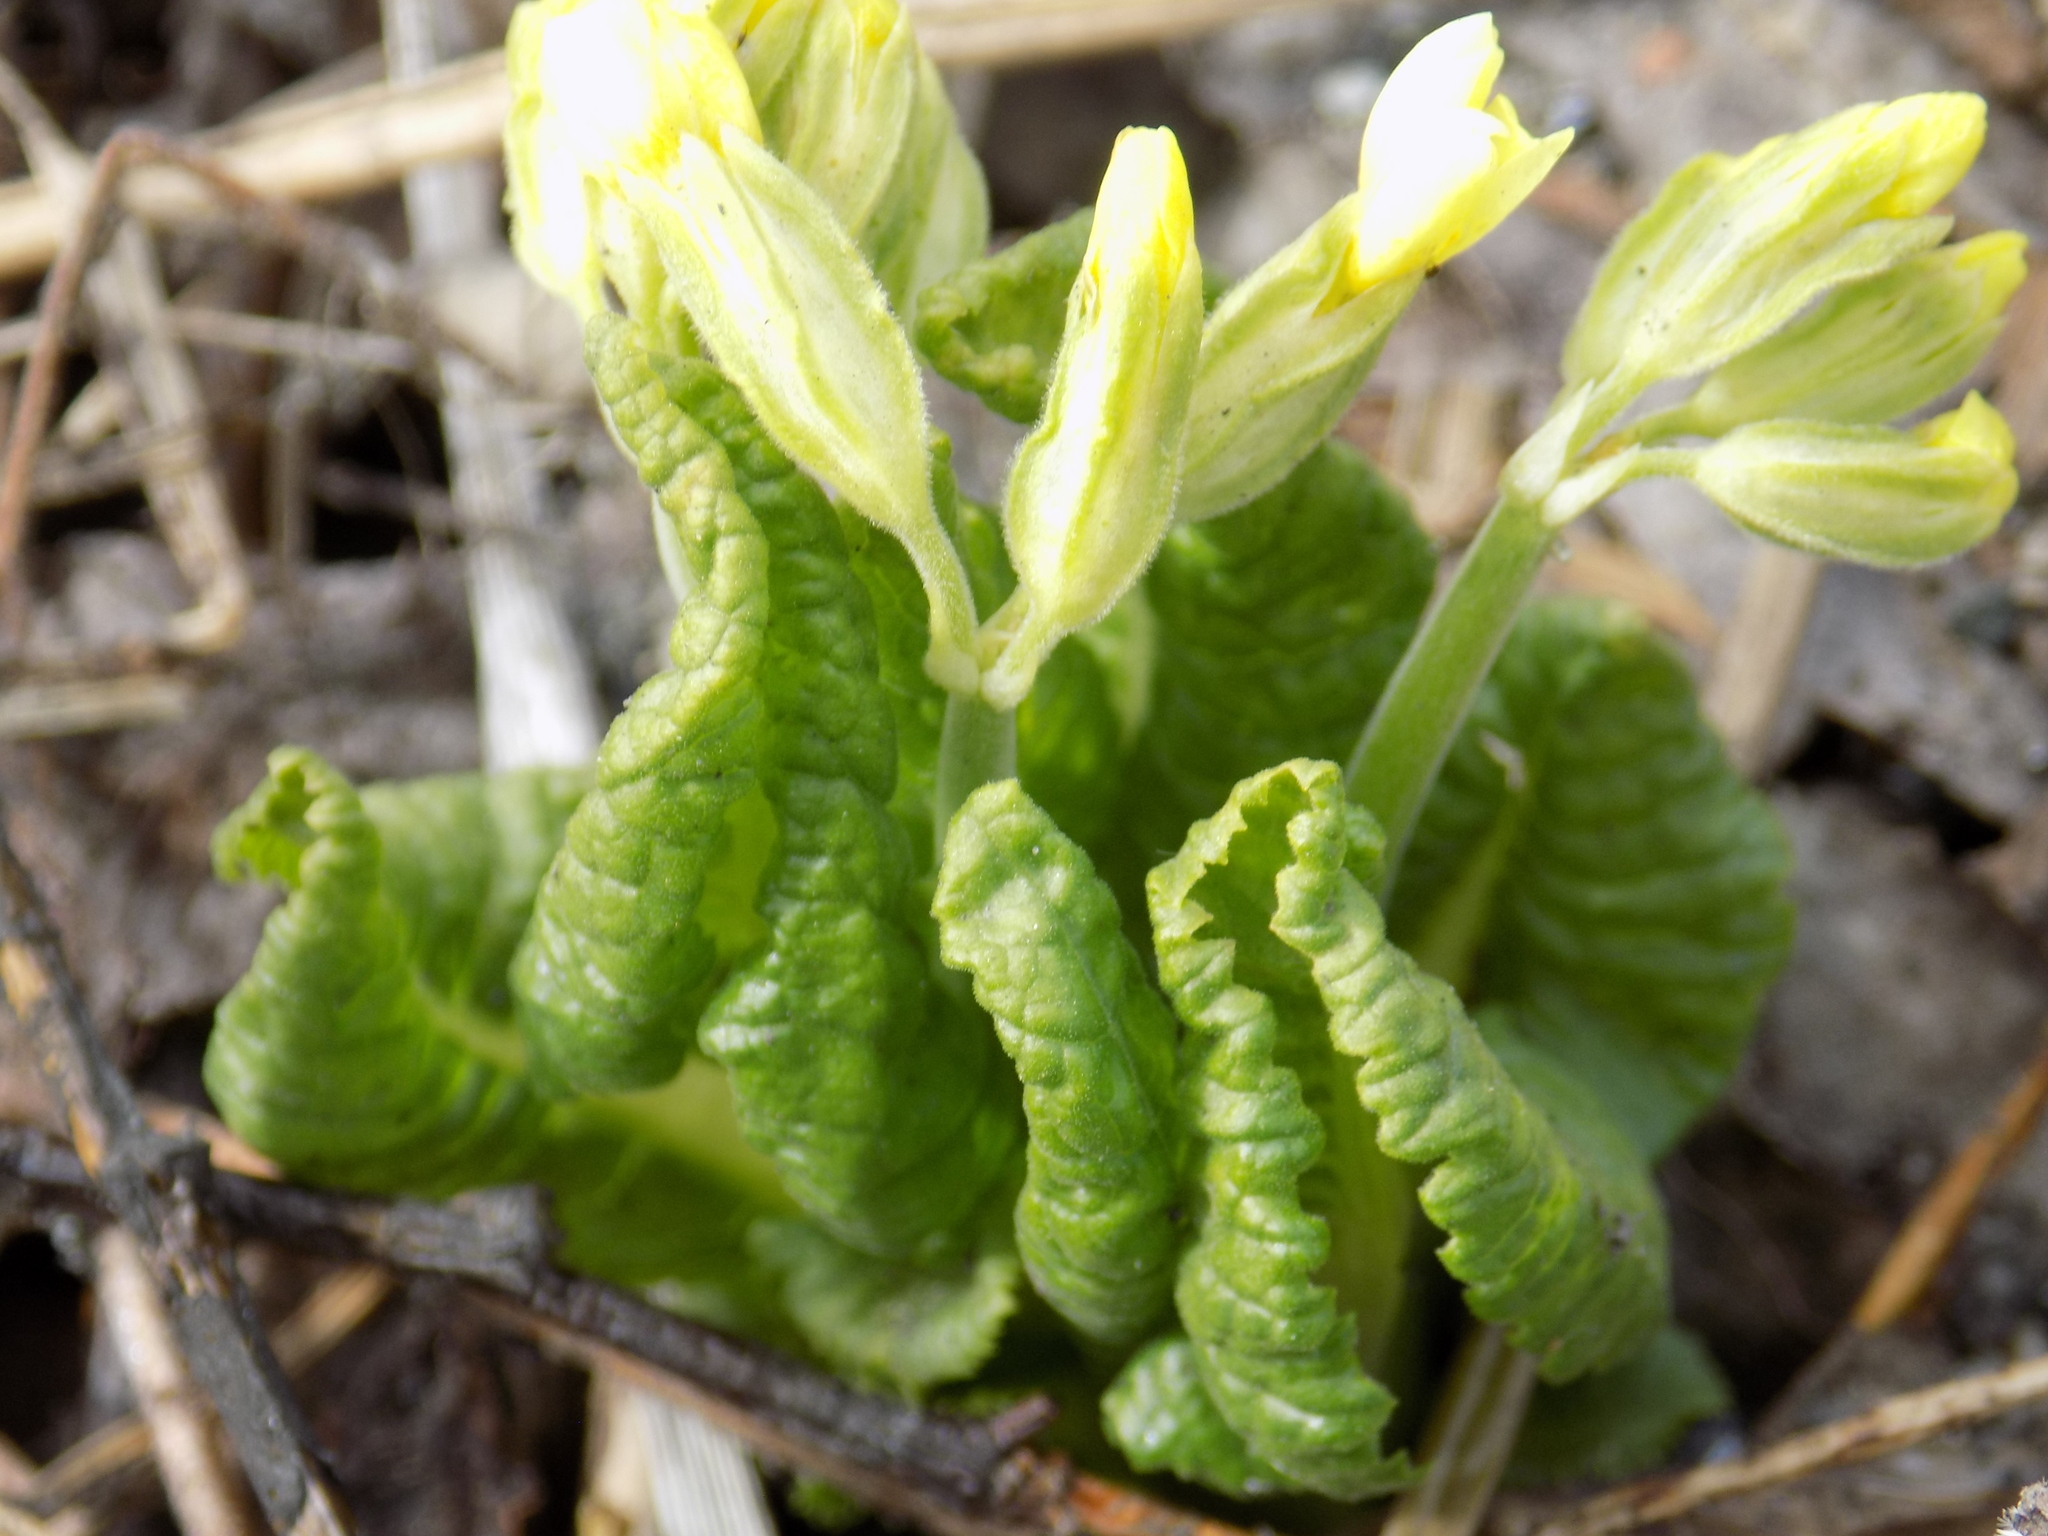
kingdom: Plantae
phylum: Tracheophyta
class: Magnoliopsida
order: Ericales
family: Primulaceae
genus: Primula
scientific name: Primula elatior
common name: Oxlip
